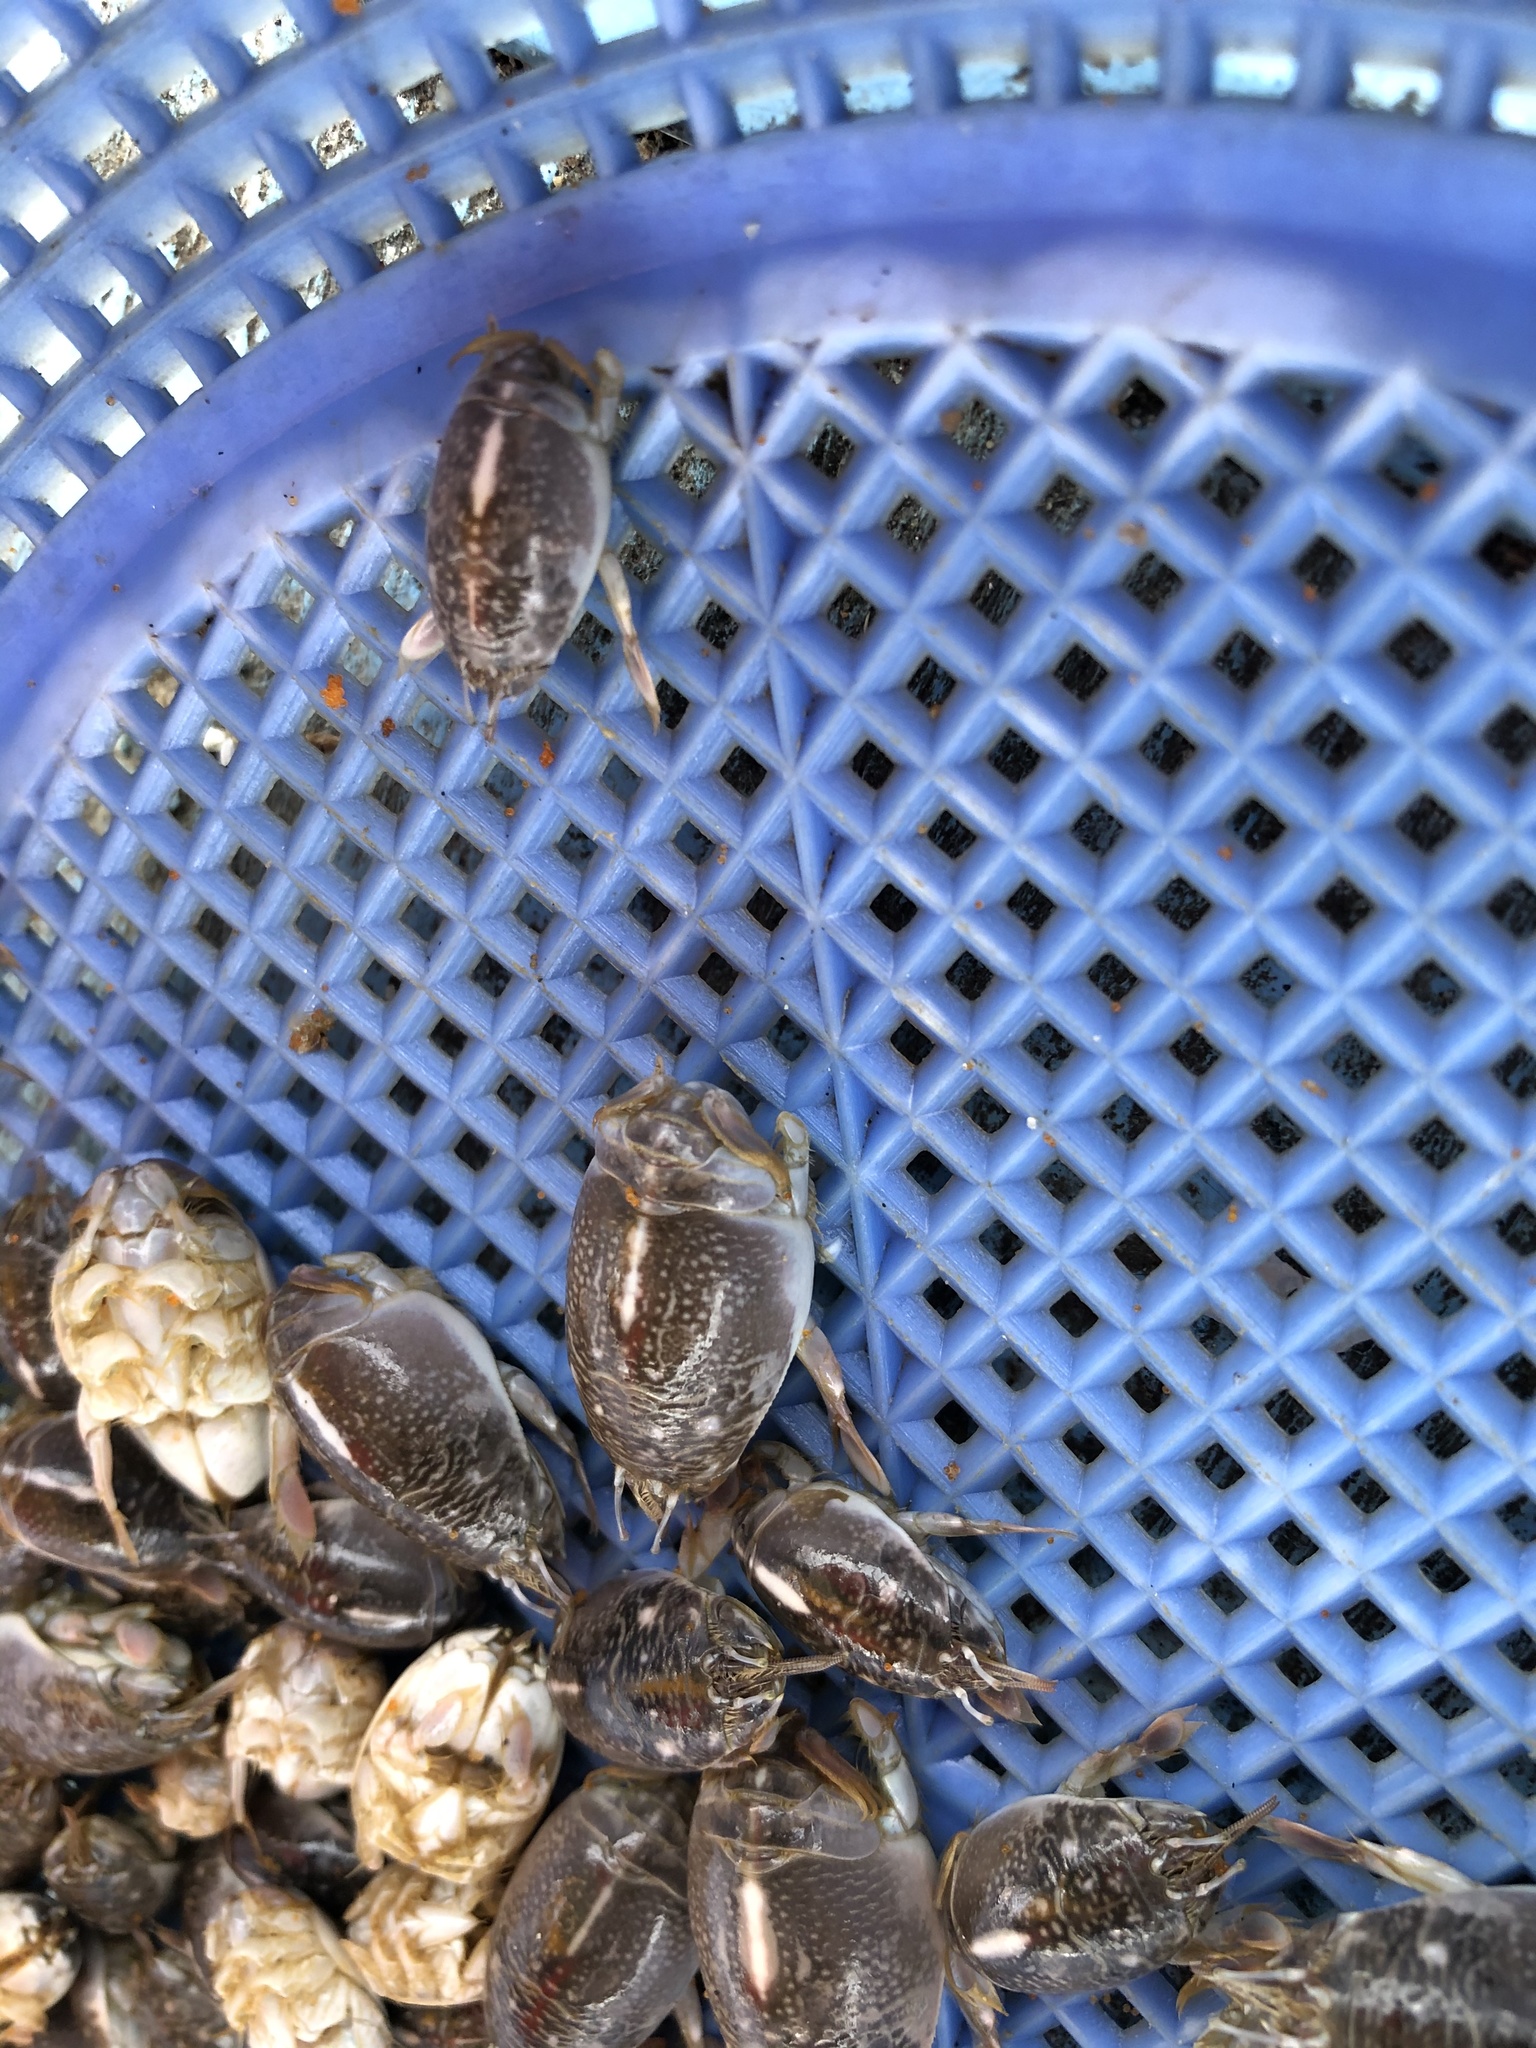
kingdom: Animalia
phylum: Arthropoda
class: Malacostraca
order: Decapoda
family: Hippidae
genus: Emerita
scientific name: Emerita analoga
